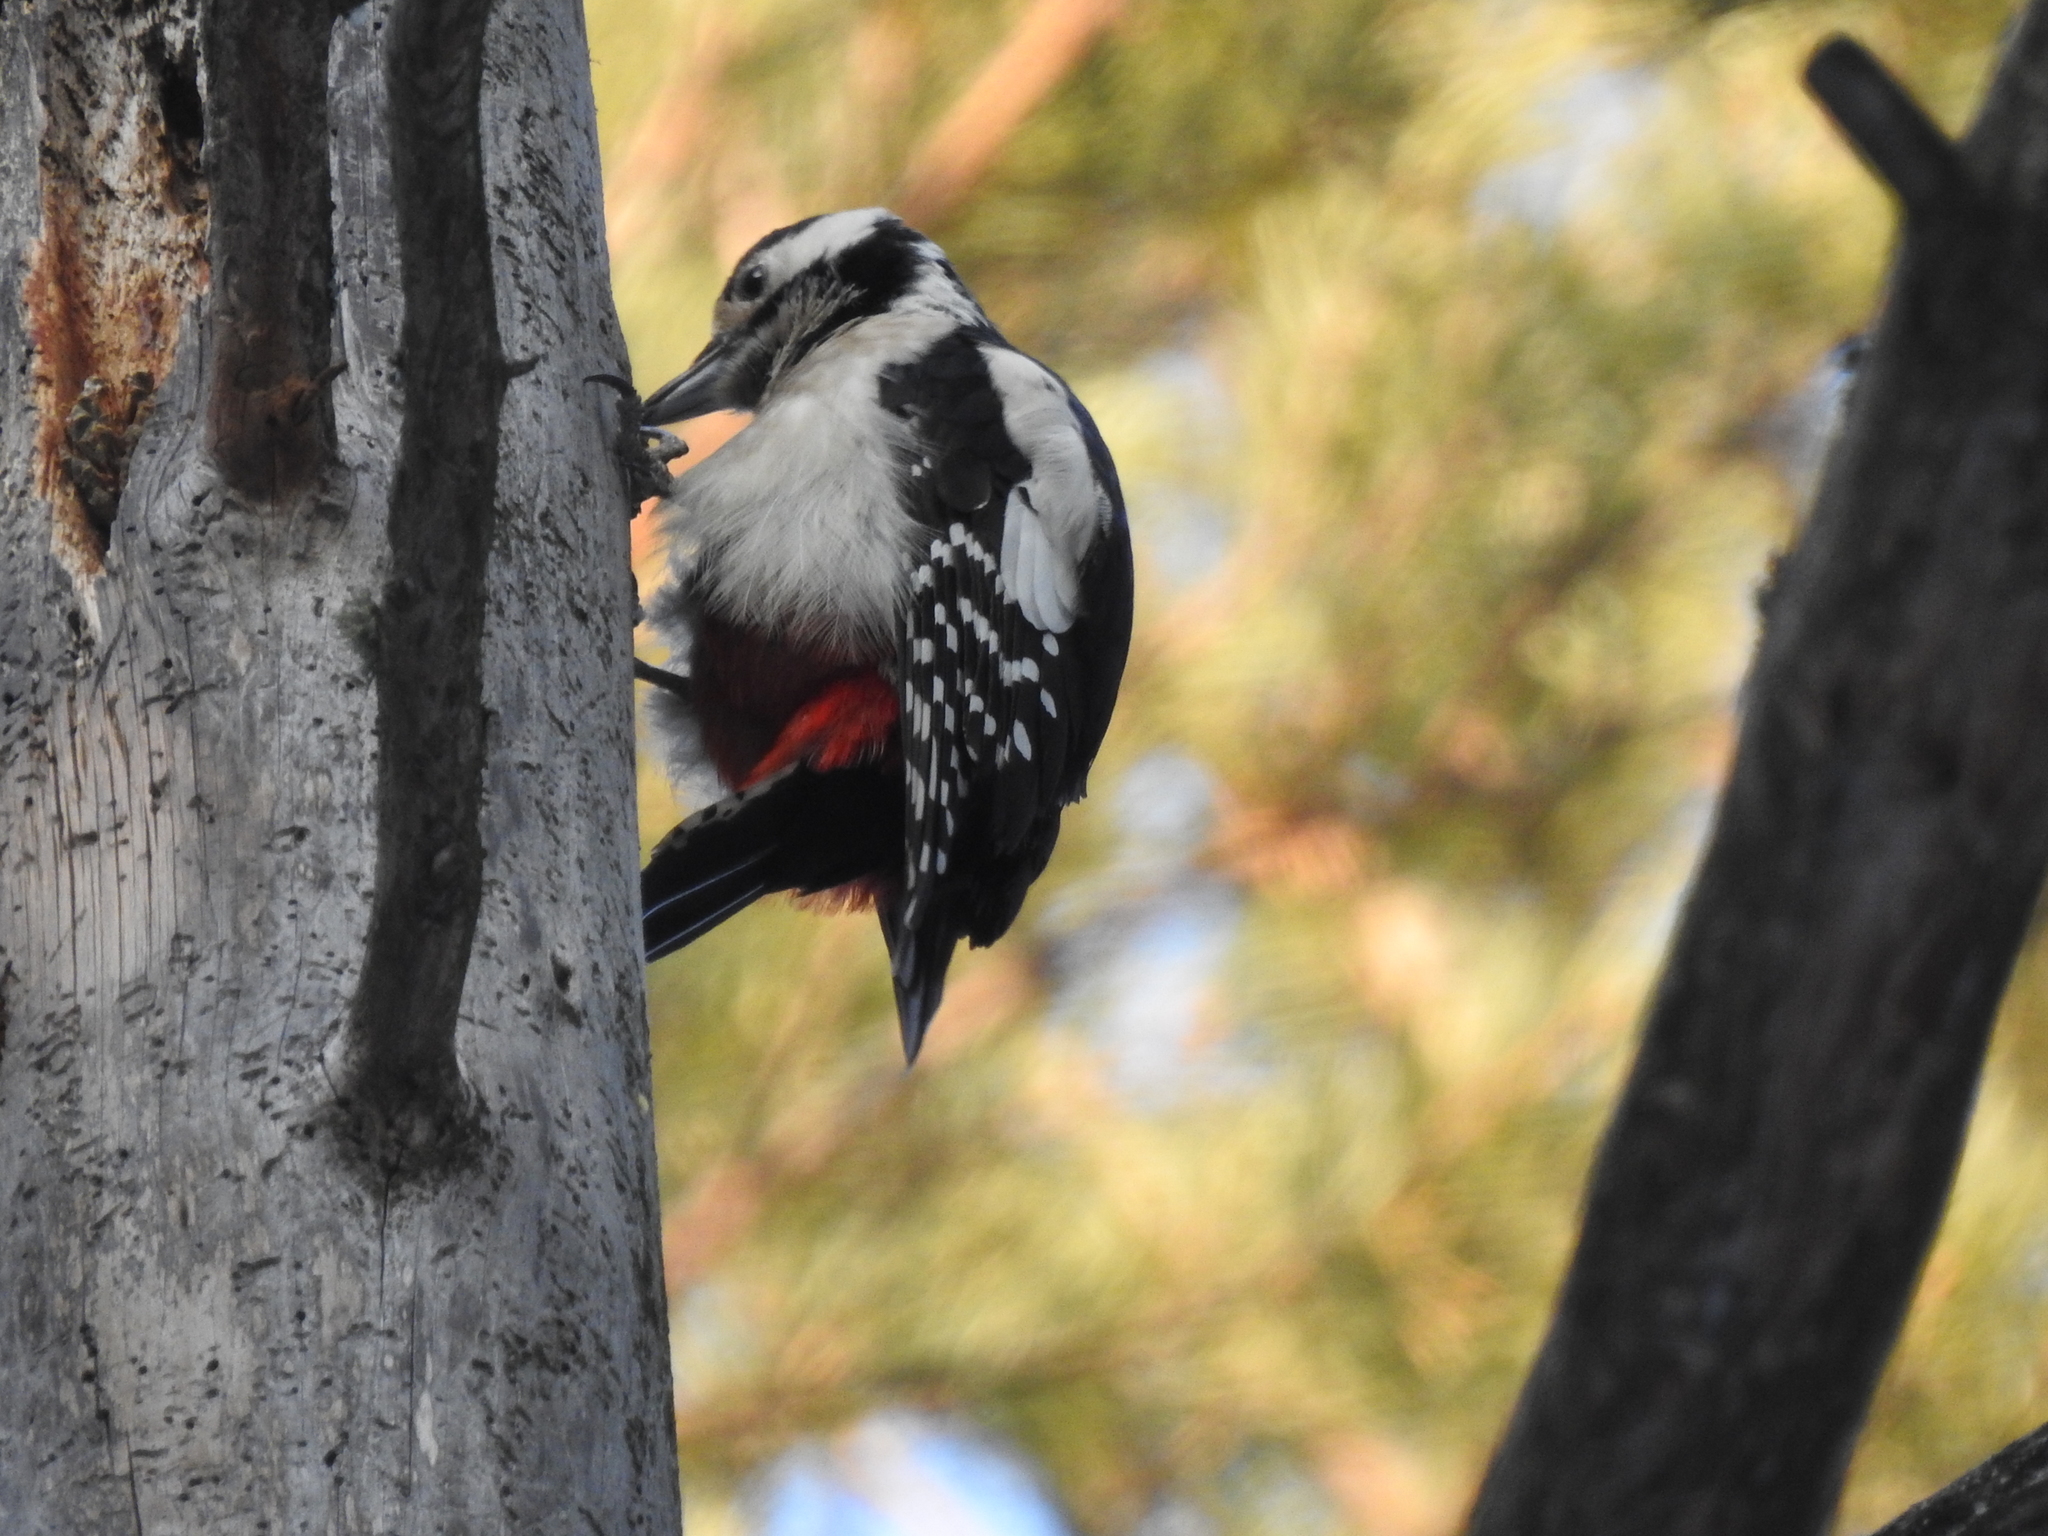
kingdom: Animalia
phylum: Chordata
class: Aves
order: Piciformes
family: Picidae
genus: Dendrocopos
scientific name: Dendrocopos major
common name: Great spotted woodpecker
